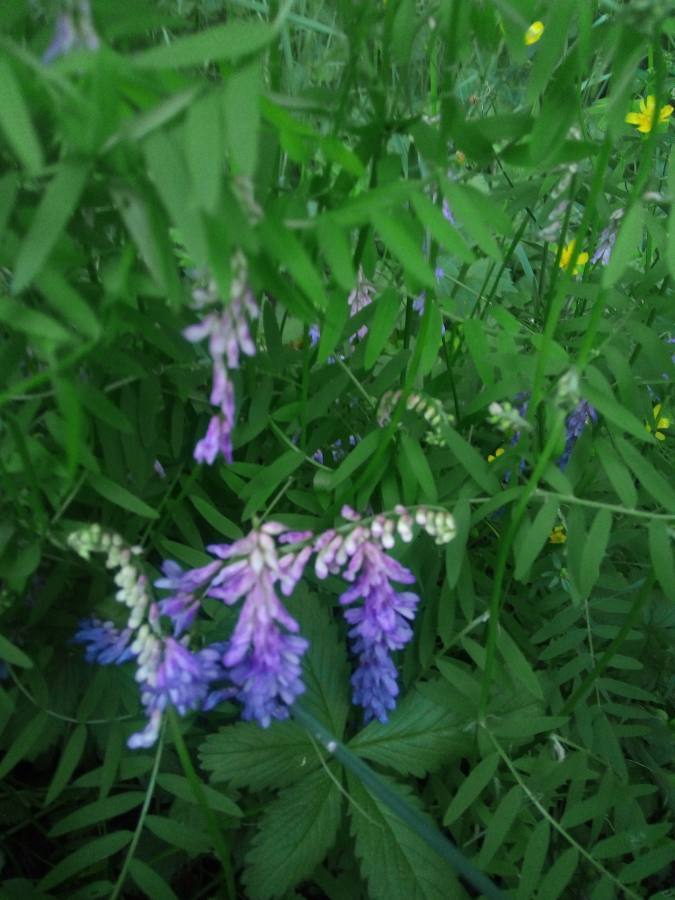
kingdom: Plantae
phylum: Tracheophyta
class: Magnoliopsida
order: Fabales
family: Fabaceae
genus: Vicia
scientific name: Vicia cracca
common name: Bird vetch
